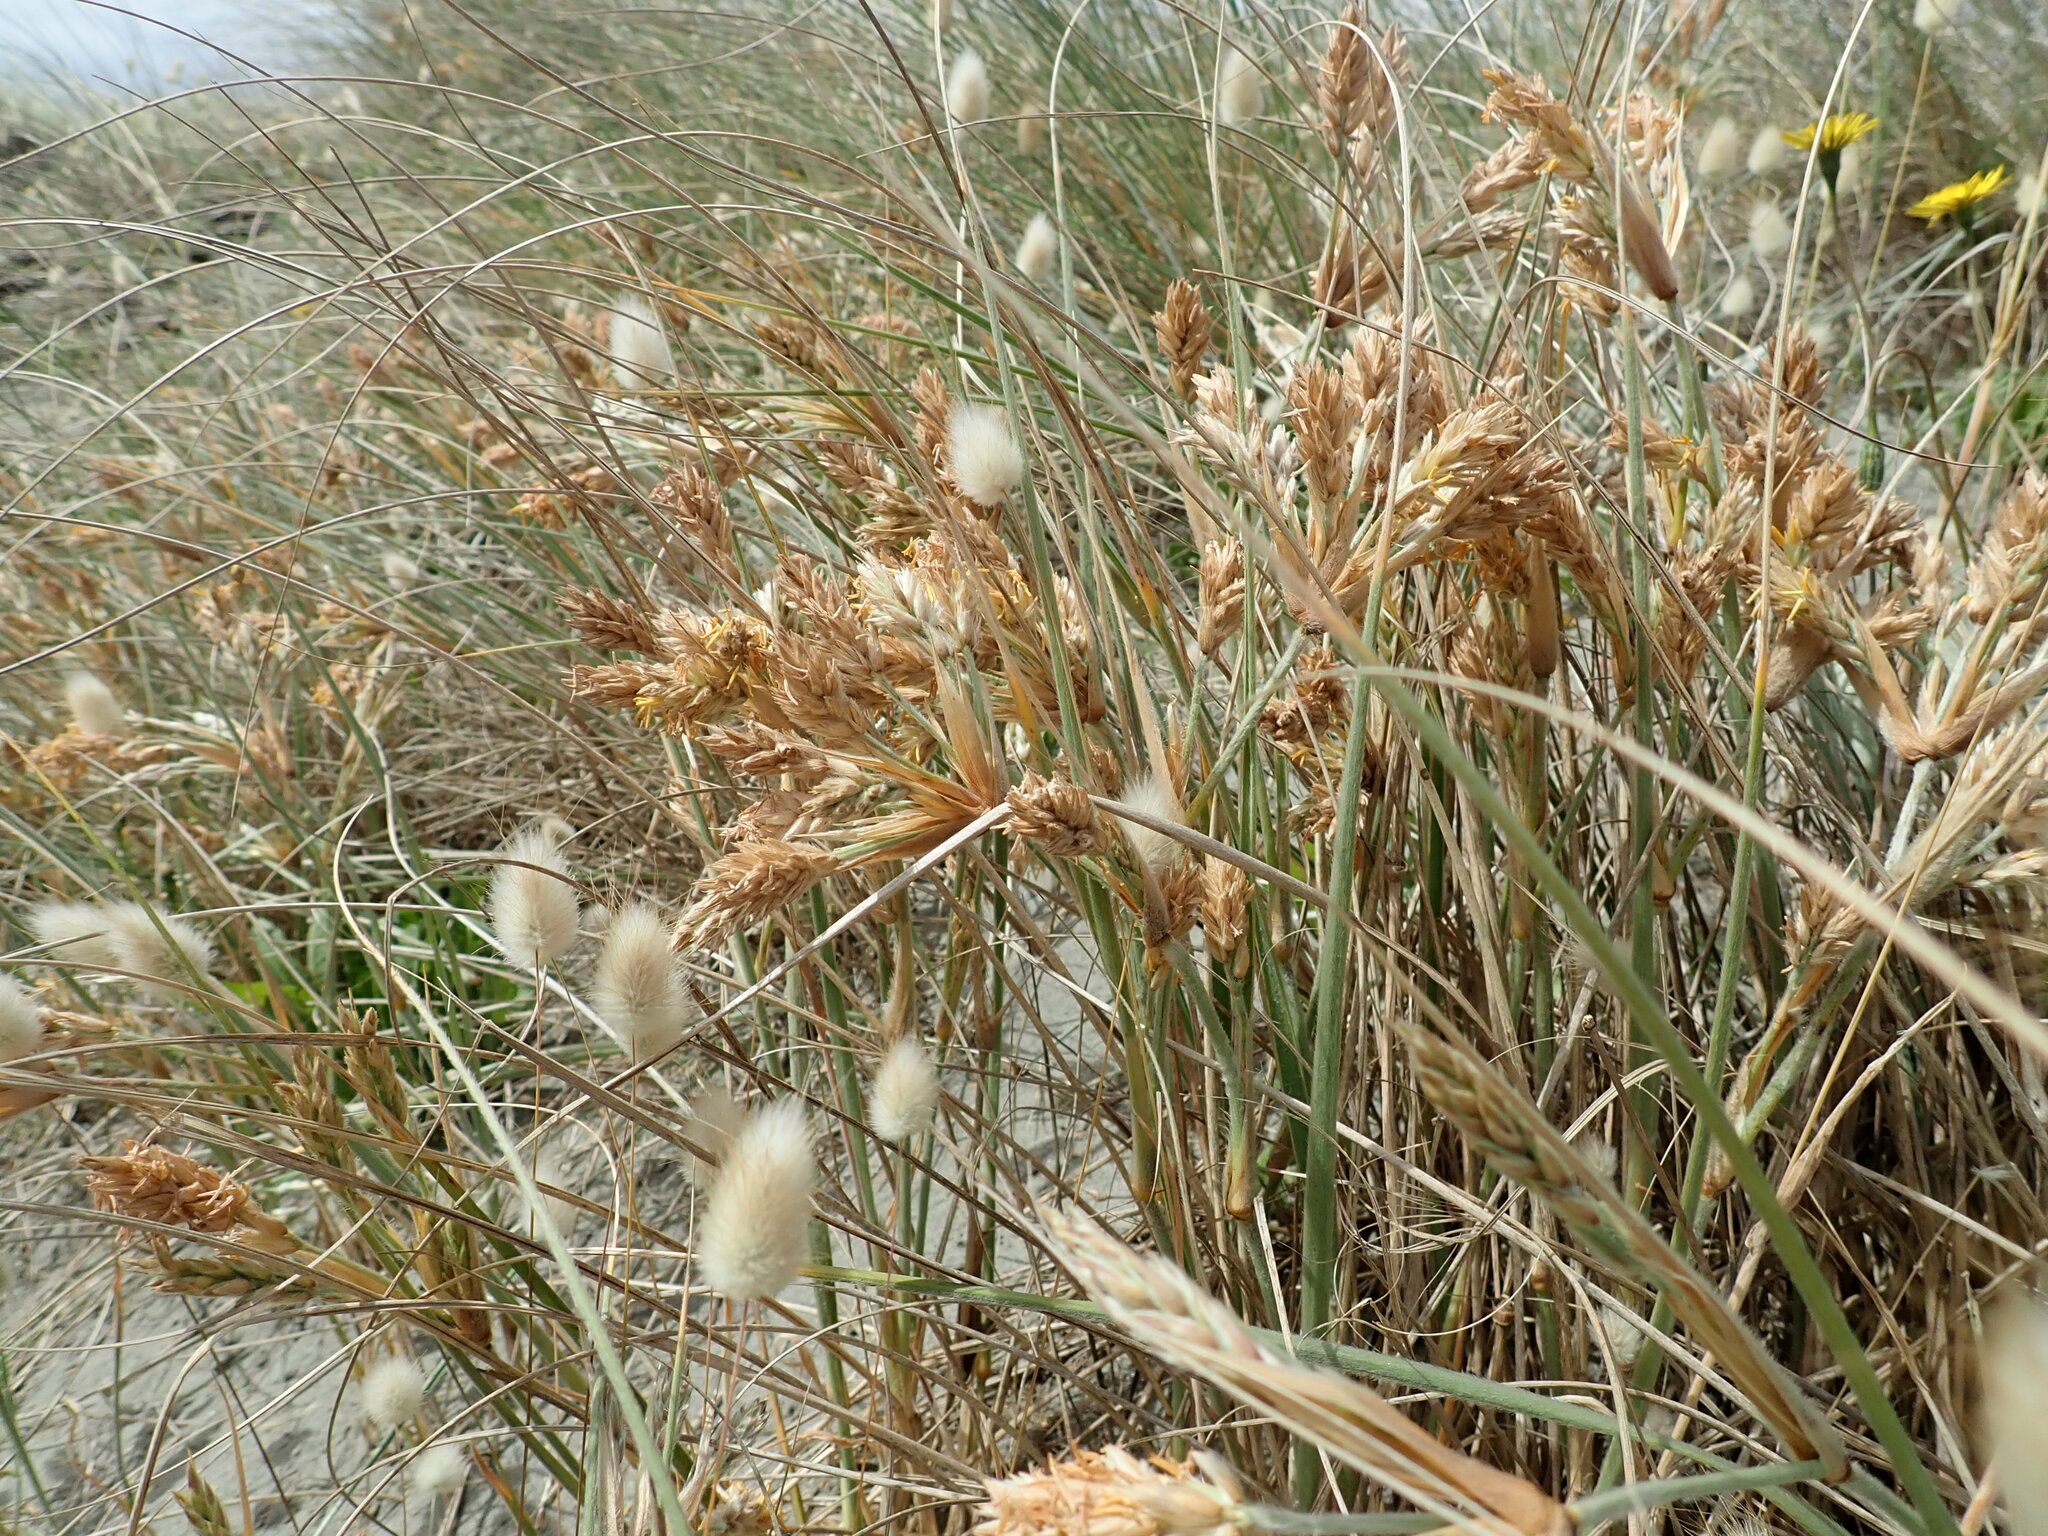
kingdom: Plantae
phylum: Tracheophyta
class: Liliopsida
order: Poales
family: Poaceae
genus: Spinifex
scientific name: Spinifex sericeus
